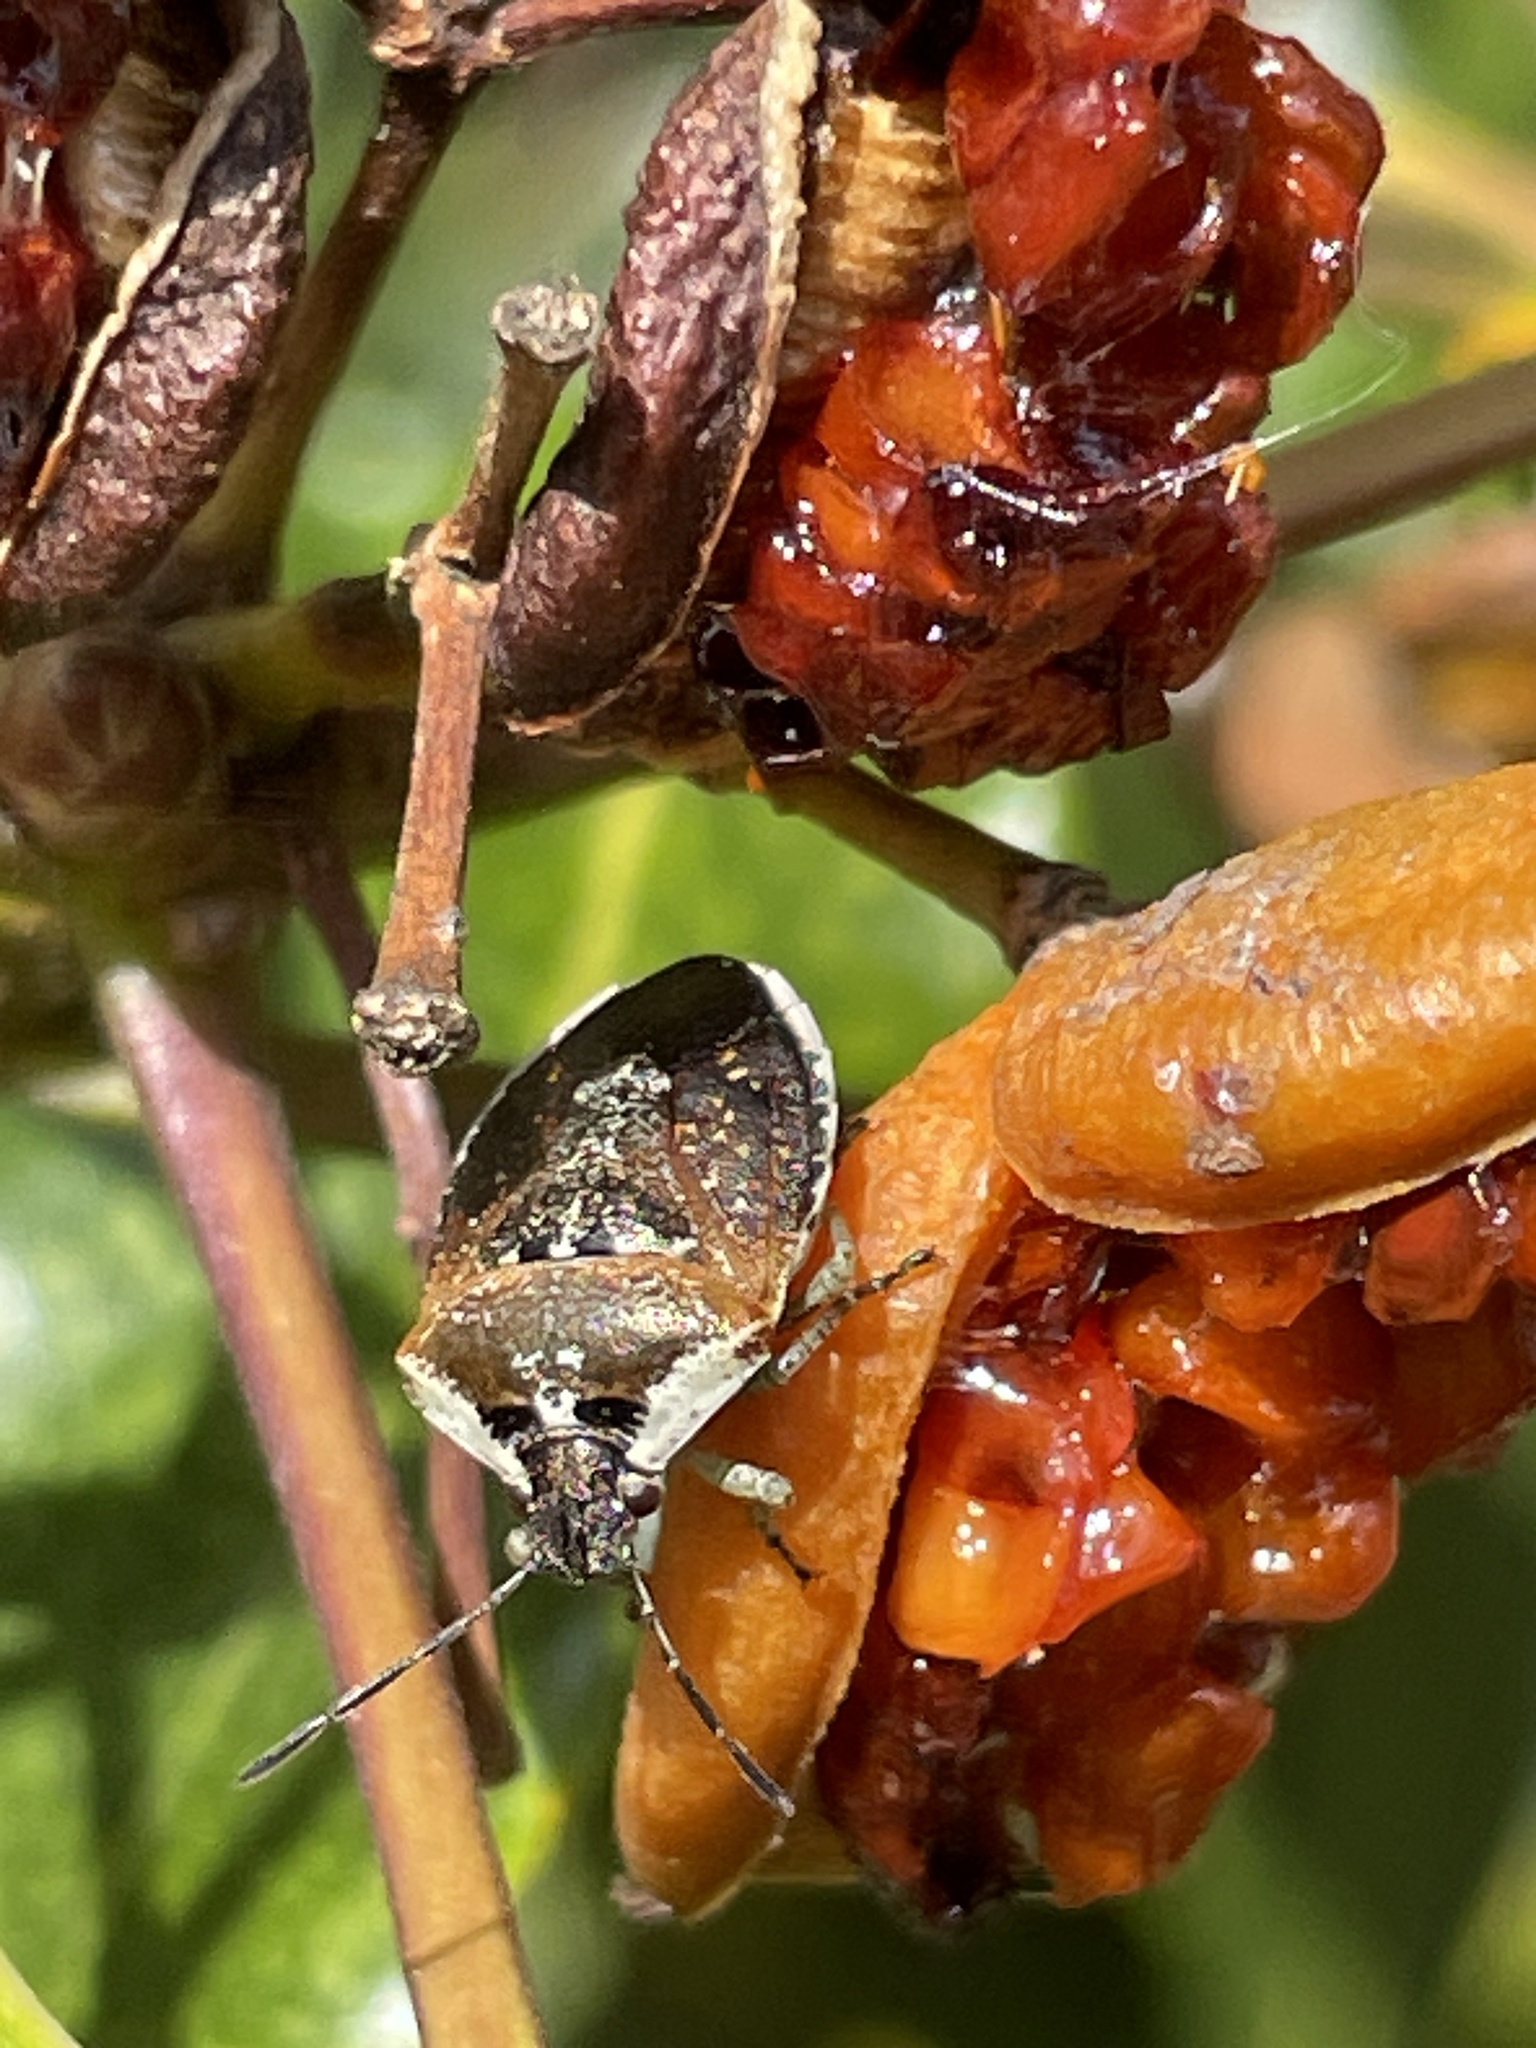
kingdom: Animalia
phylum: Arthropoda
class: Insecta
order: Hemiptera
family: Pentatomidae
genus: Monteithiella
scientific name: Monteithiella
